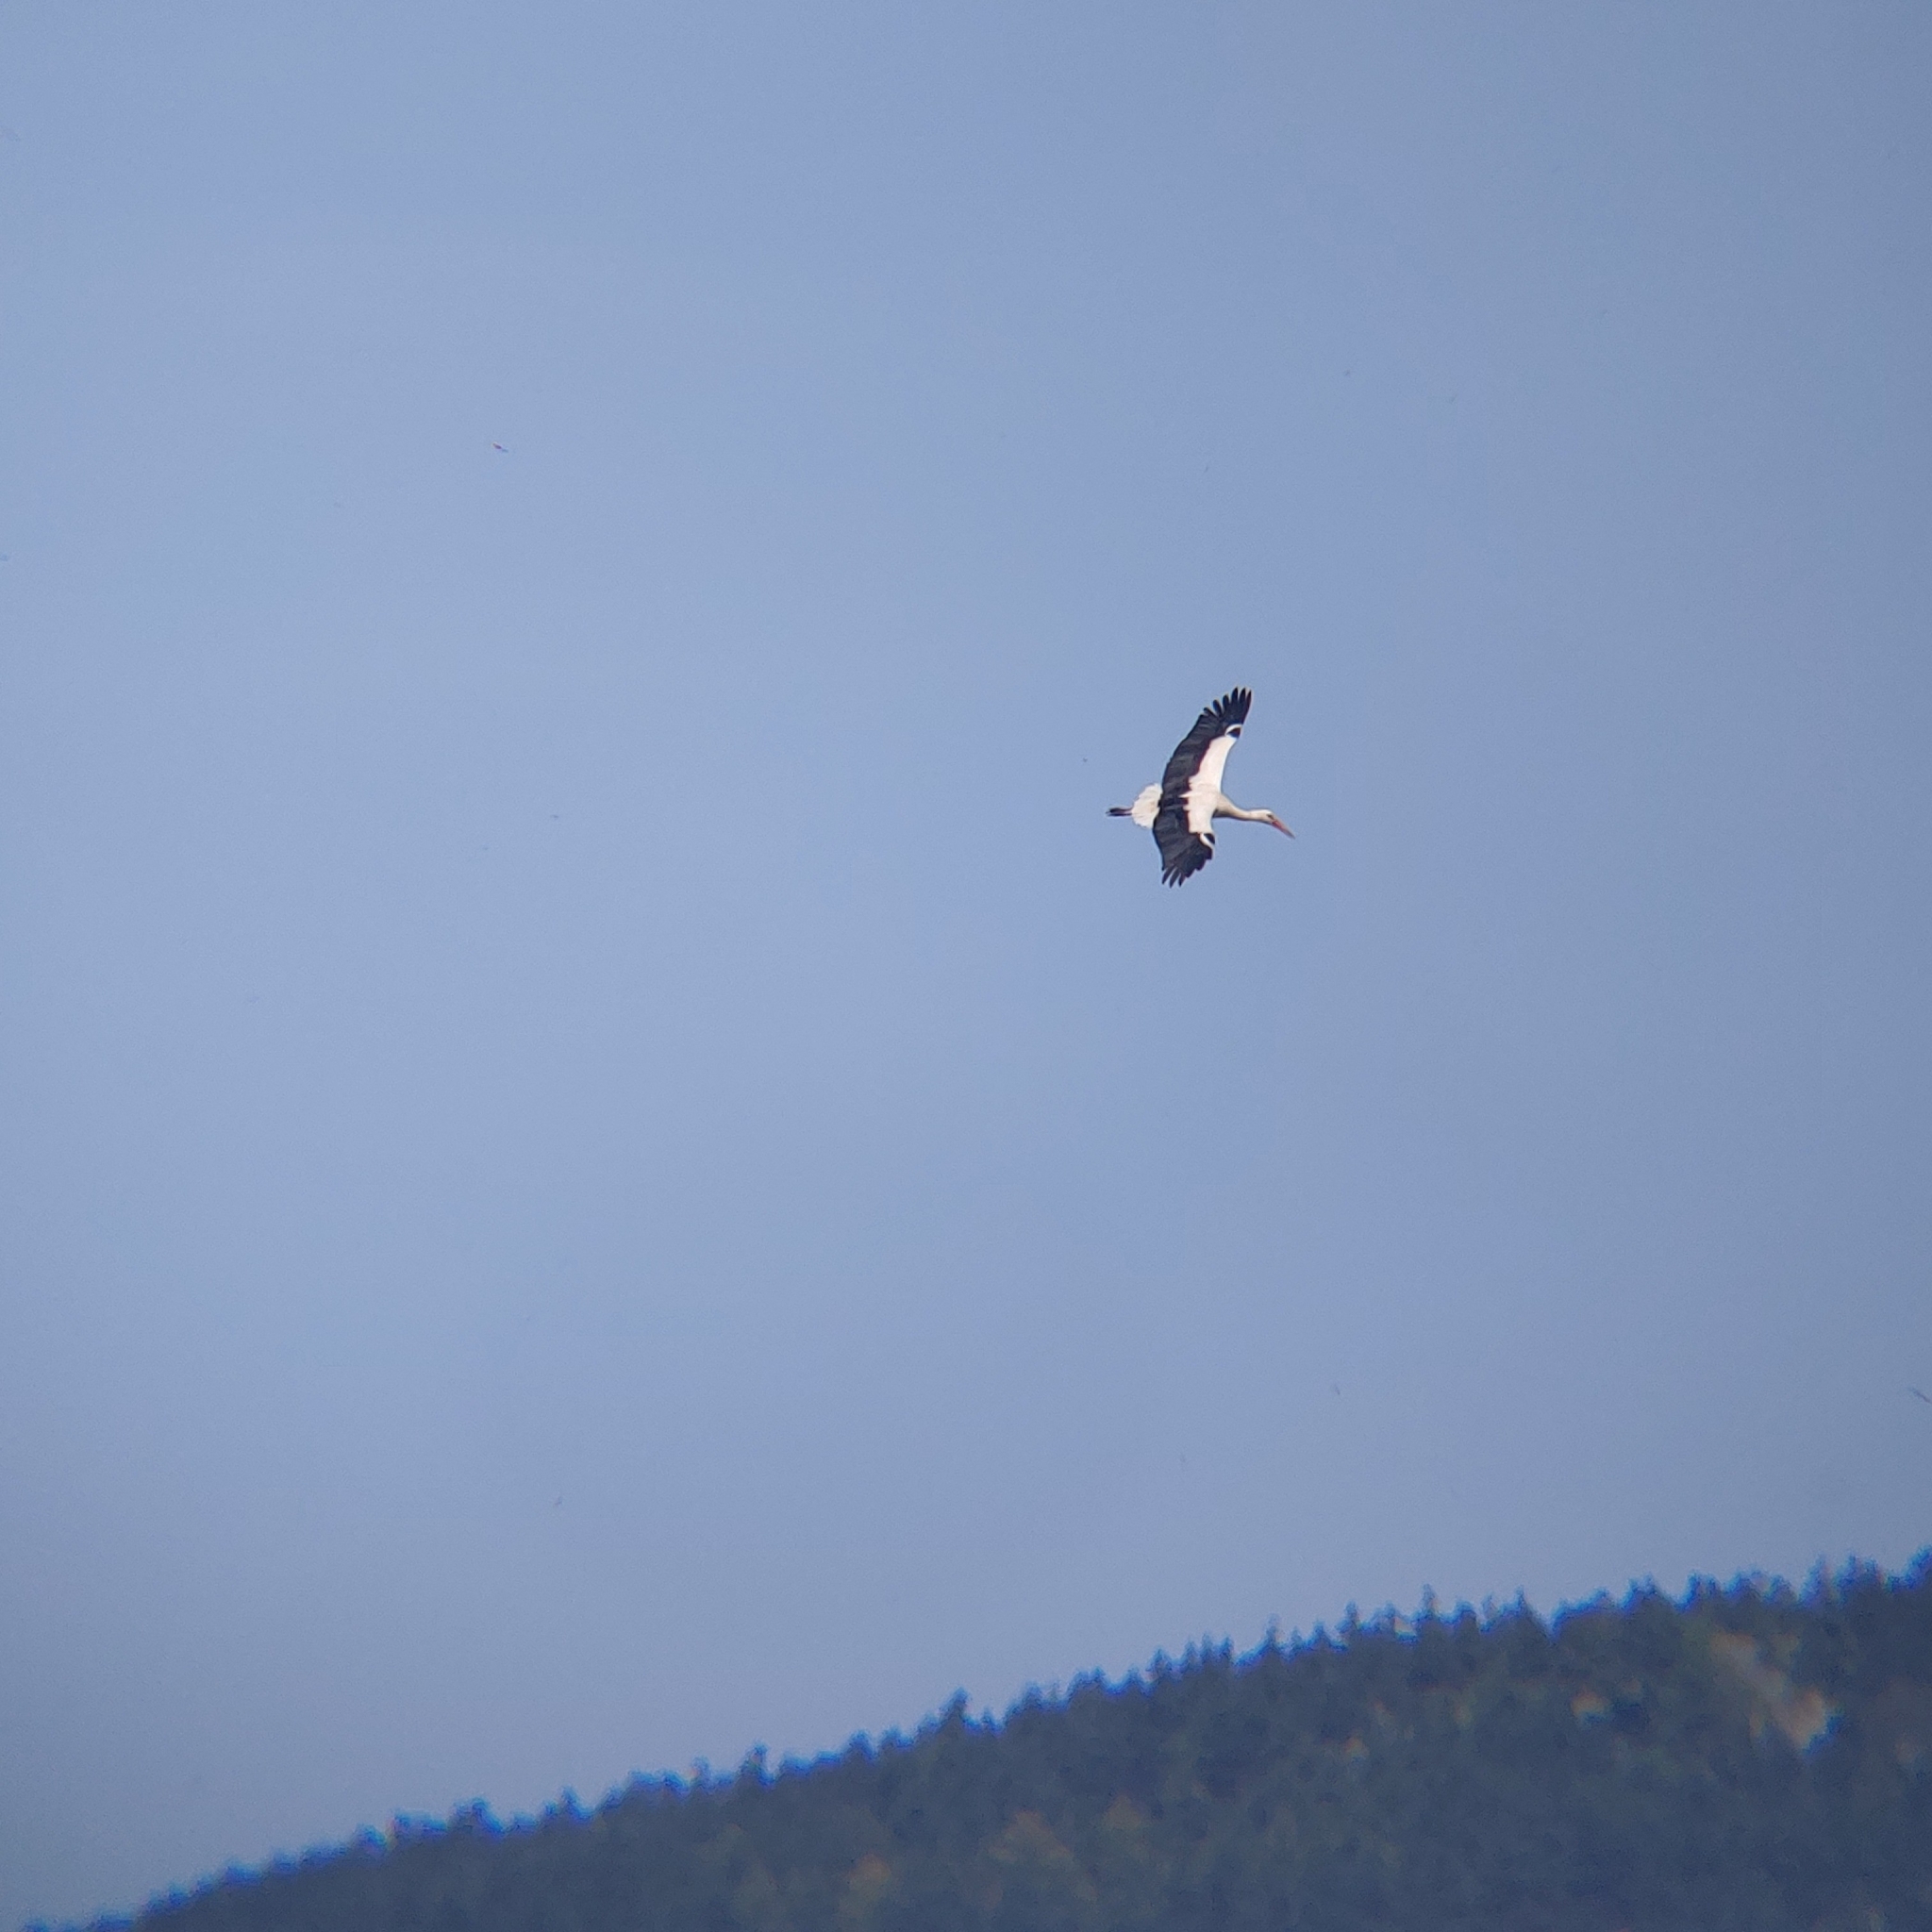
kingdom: Animalia
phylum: Chordata
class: Aves
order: Ciconiiformes
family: Ciconiidae
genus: Ciconia
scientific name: Ciconia ciconia
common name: White stork
